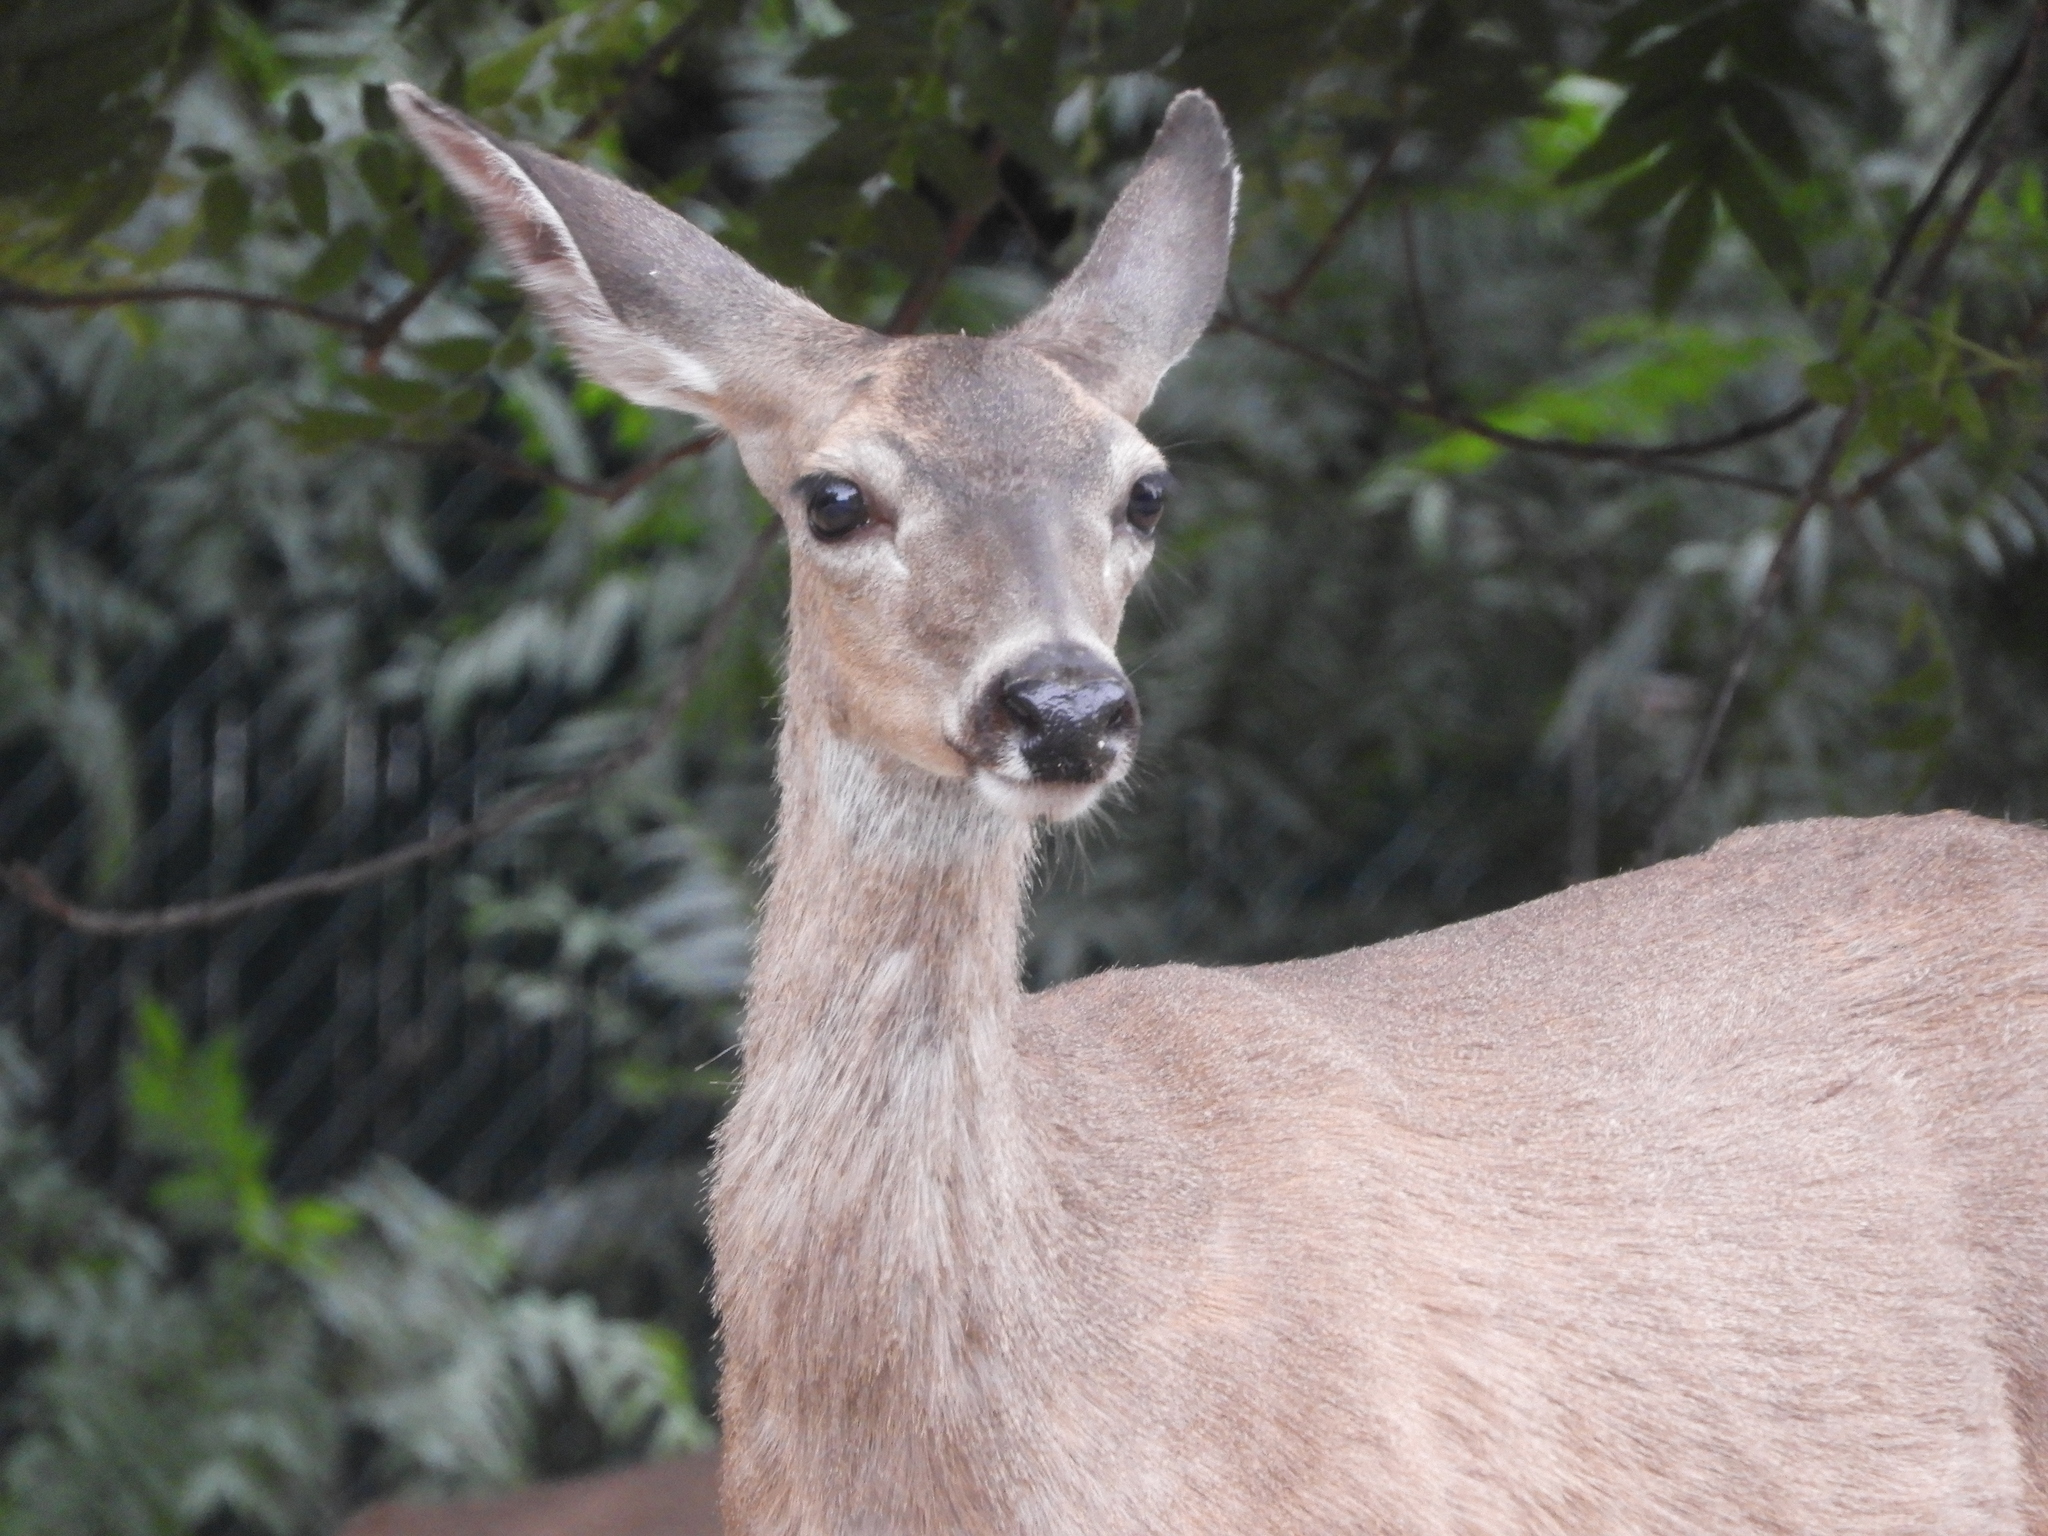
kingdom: Animalia
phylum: Chordata
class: Mammalia
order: Artiodactyla
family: Cervidae
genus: Odocoileus
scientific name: Odocoileus hemionus
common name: Mule deer
